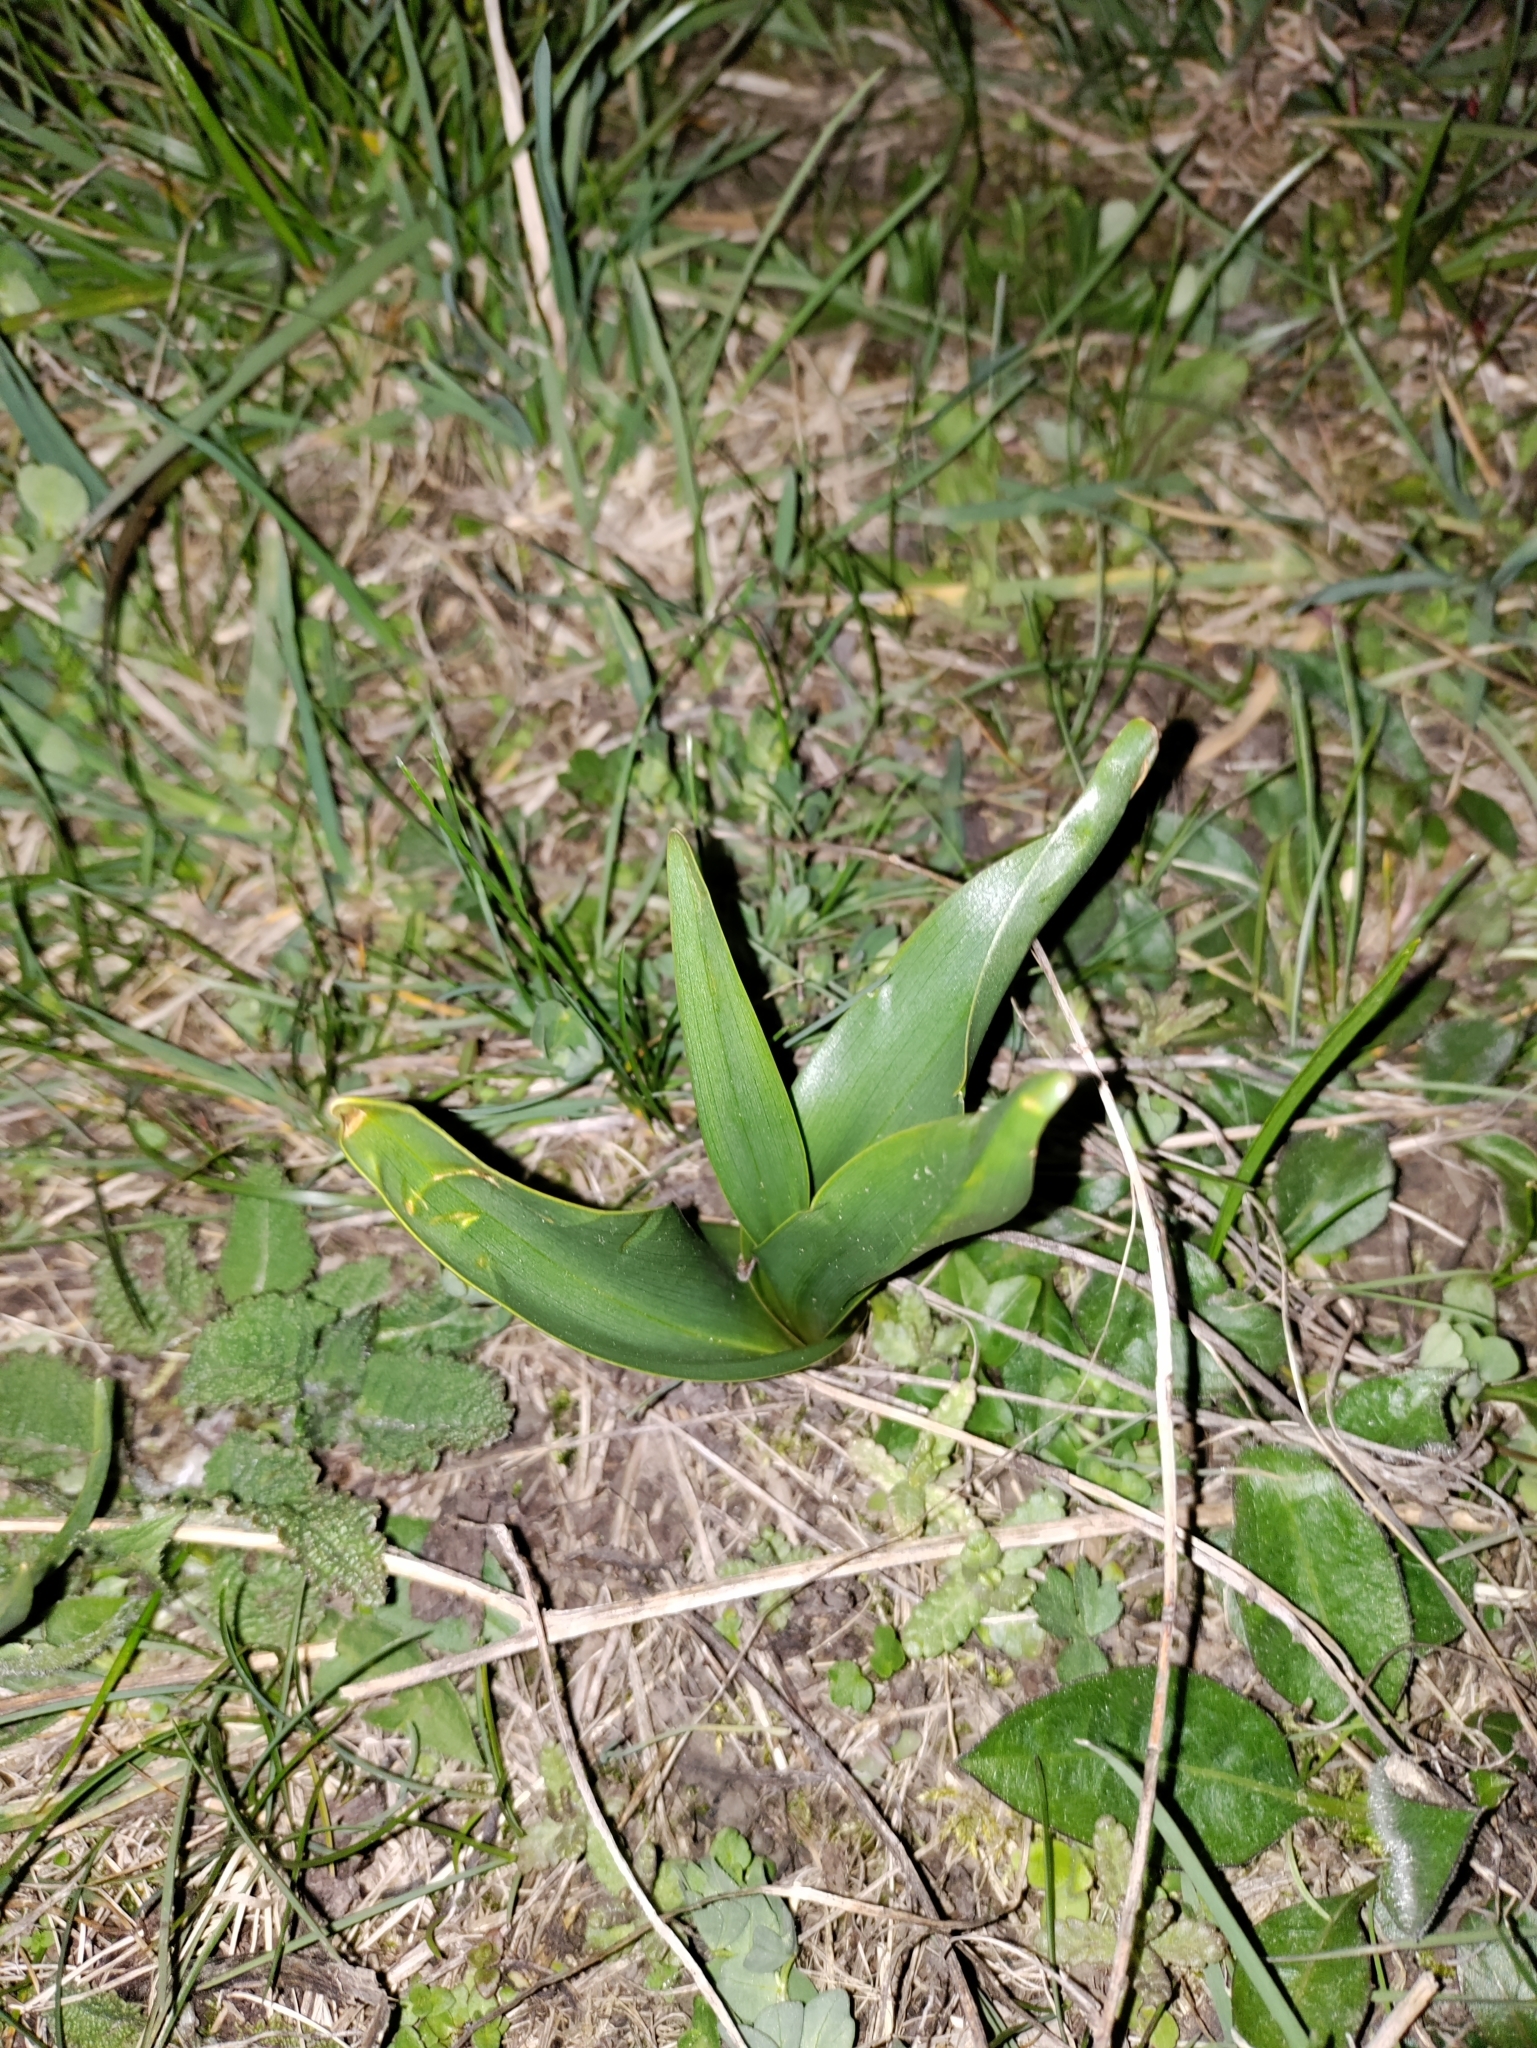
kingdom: Plantae
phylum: Tracheophyta
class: Liliopsida
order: Liliales
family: Colchicaceae
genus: Colchicum
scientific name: Colchicum autumnale
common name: Autumn crocus
